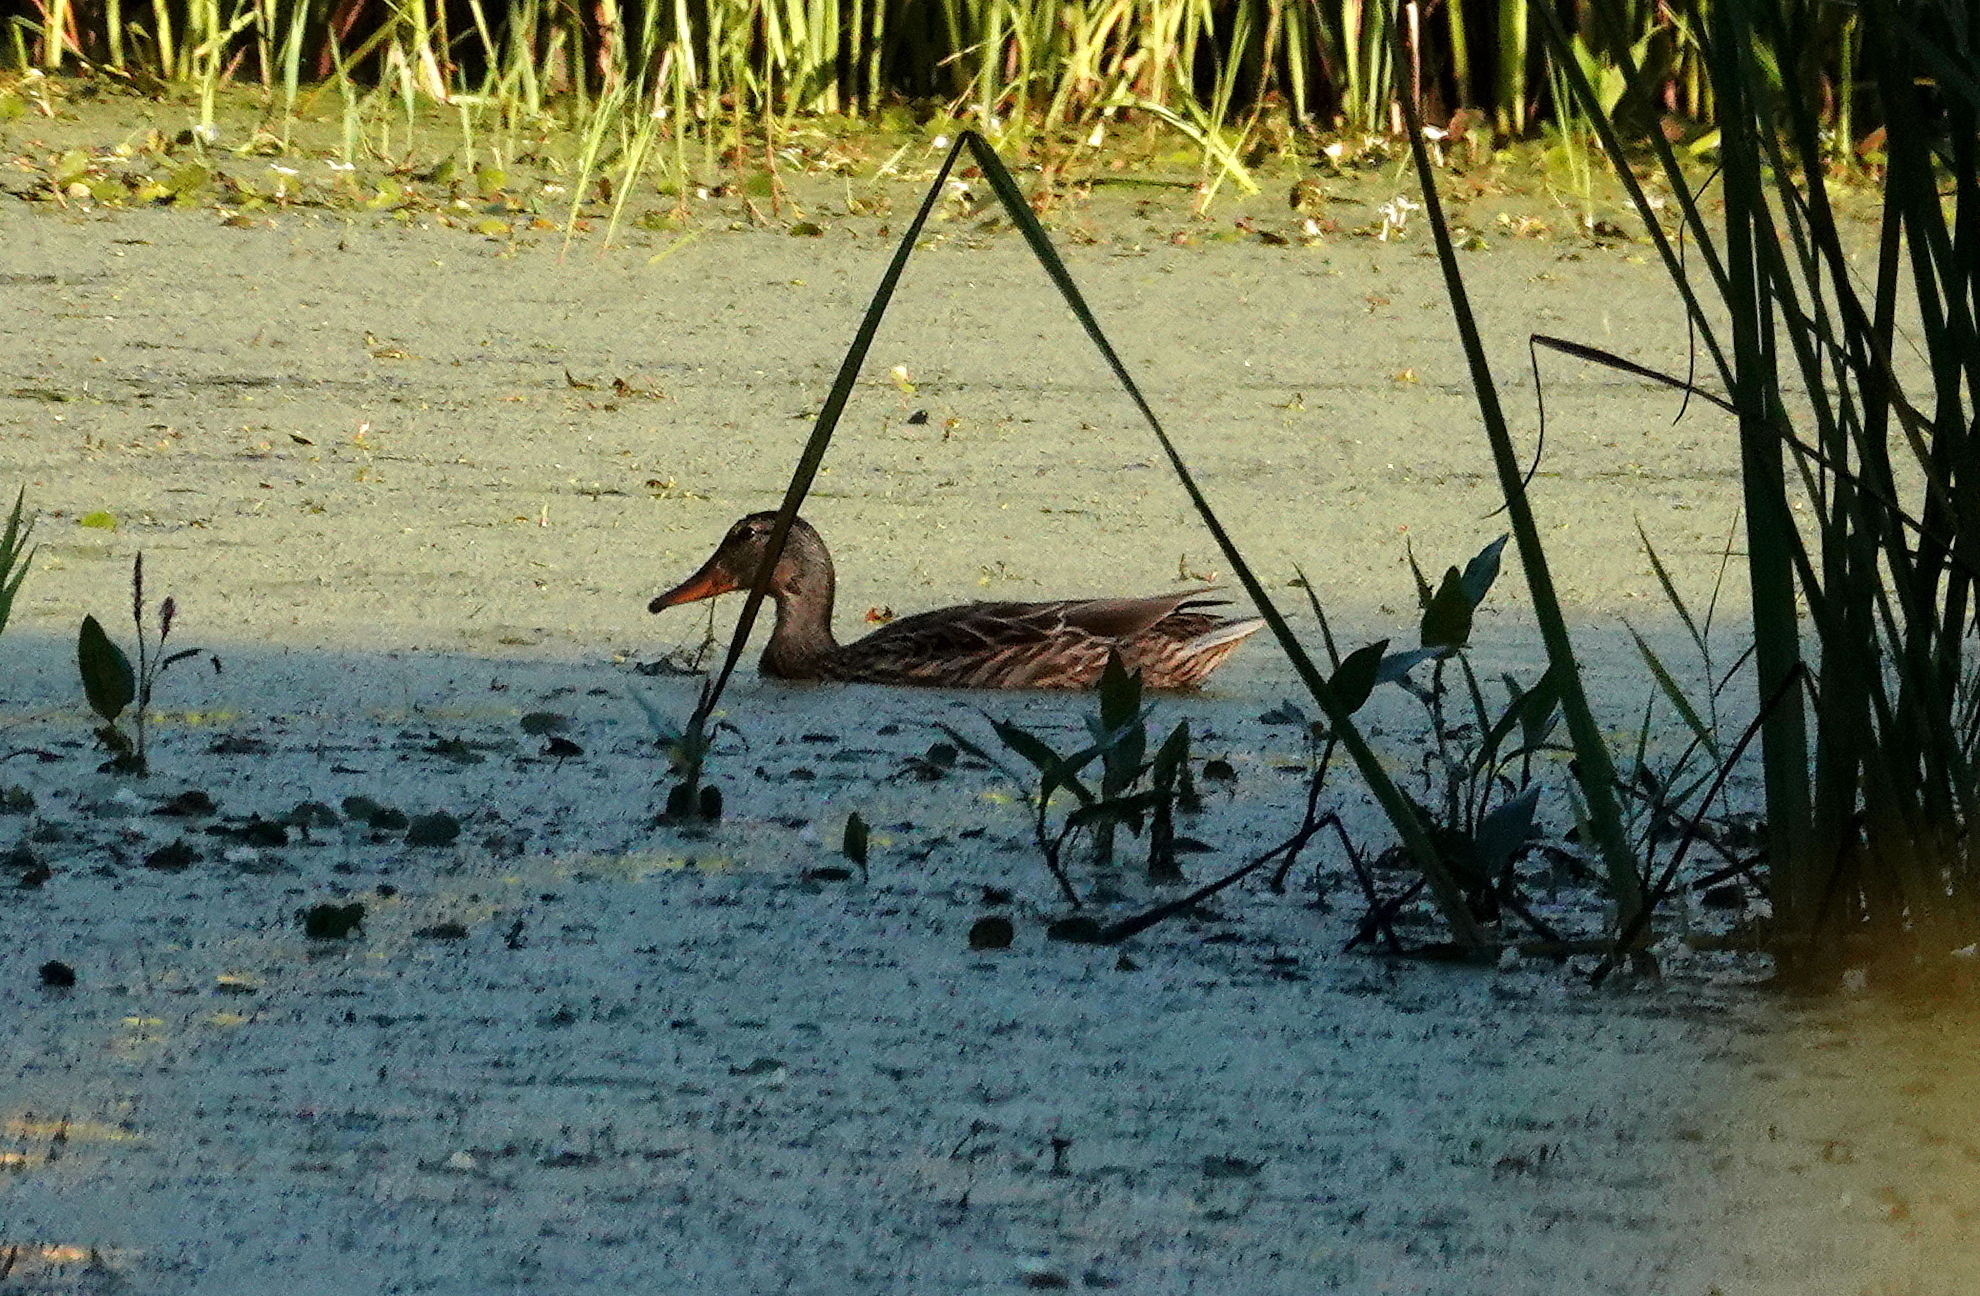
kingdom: Animalia
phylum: Chordata
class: Aves
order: Anseriformes
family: Anatidae
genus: Anas
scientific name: Anas platyrhynchos
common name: Mallard
